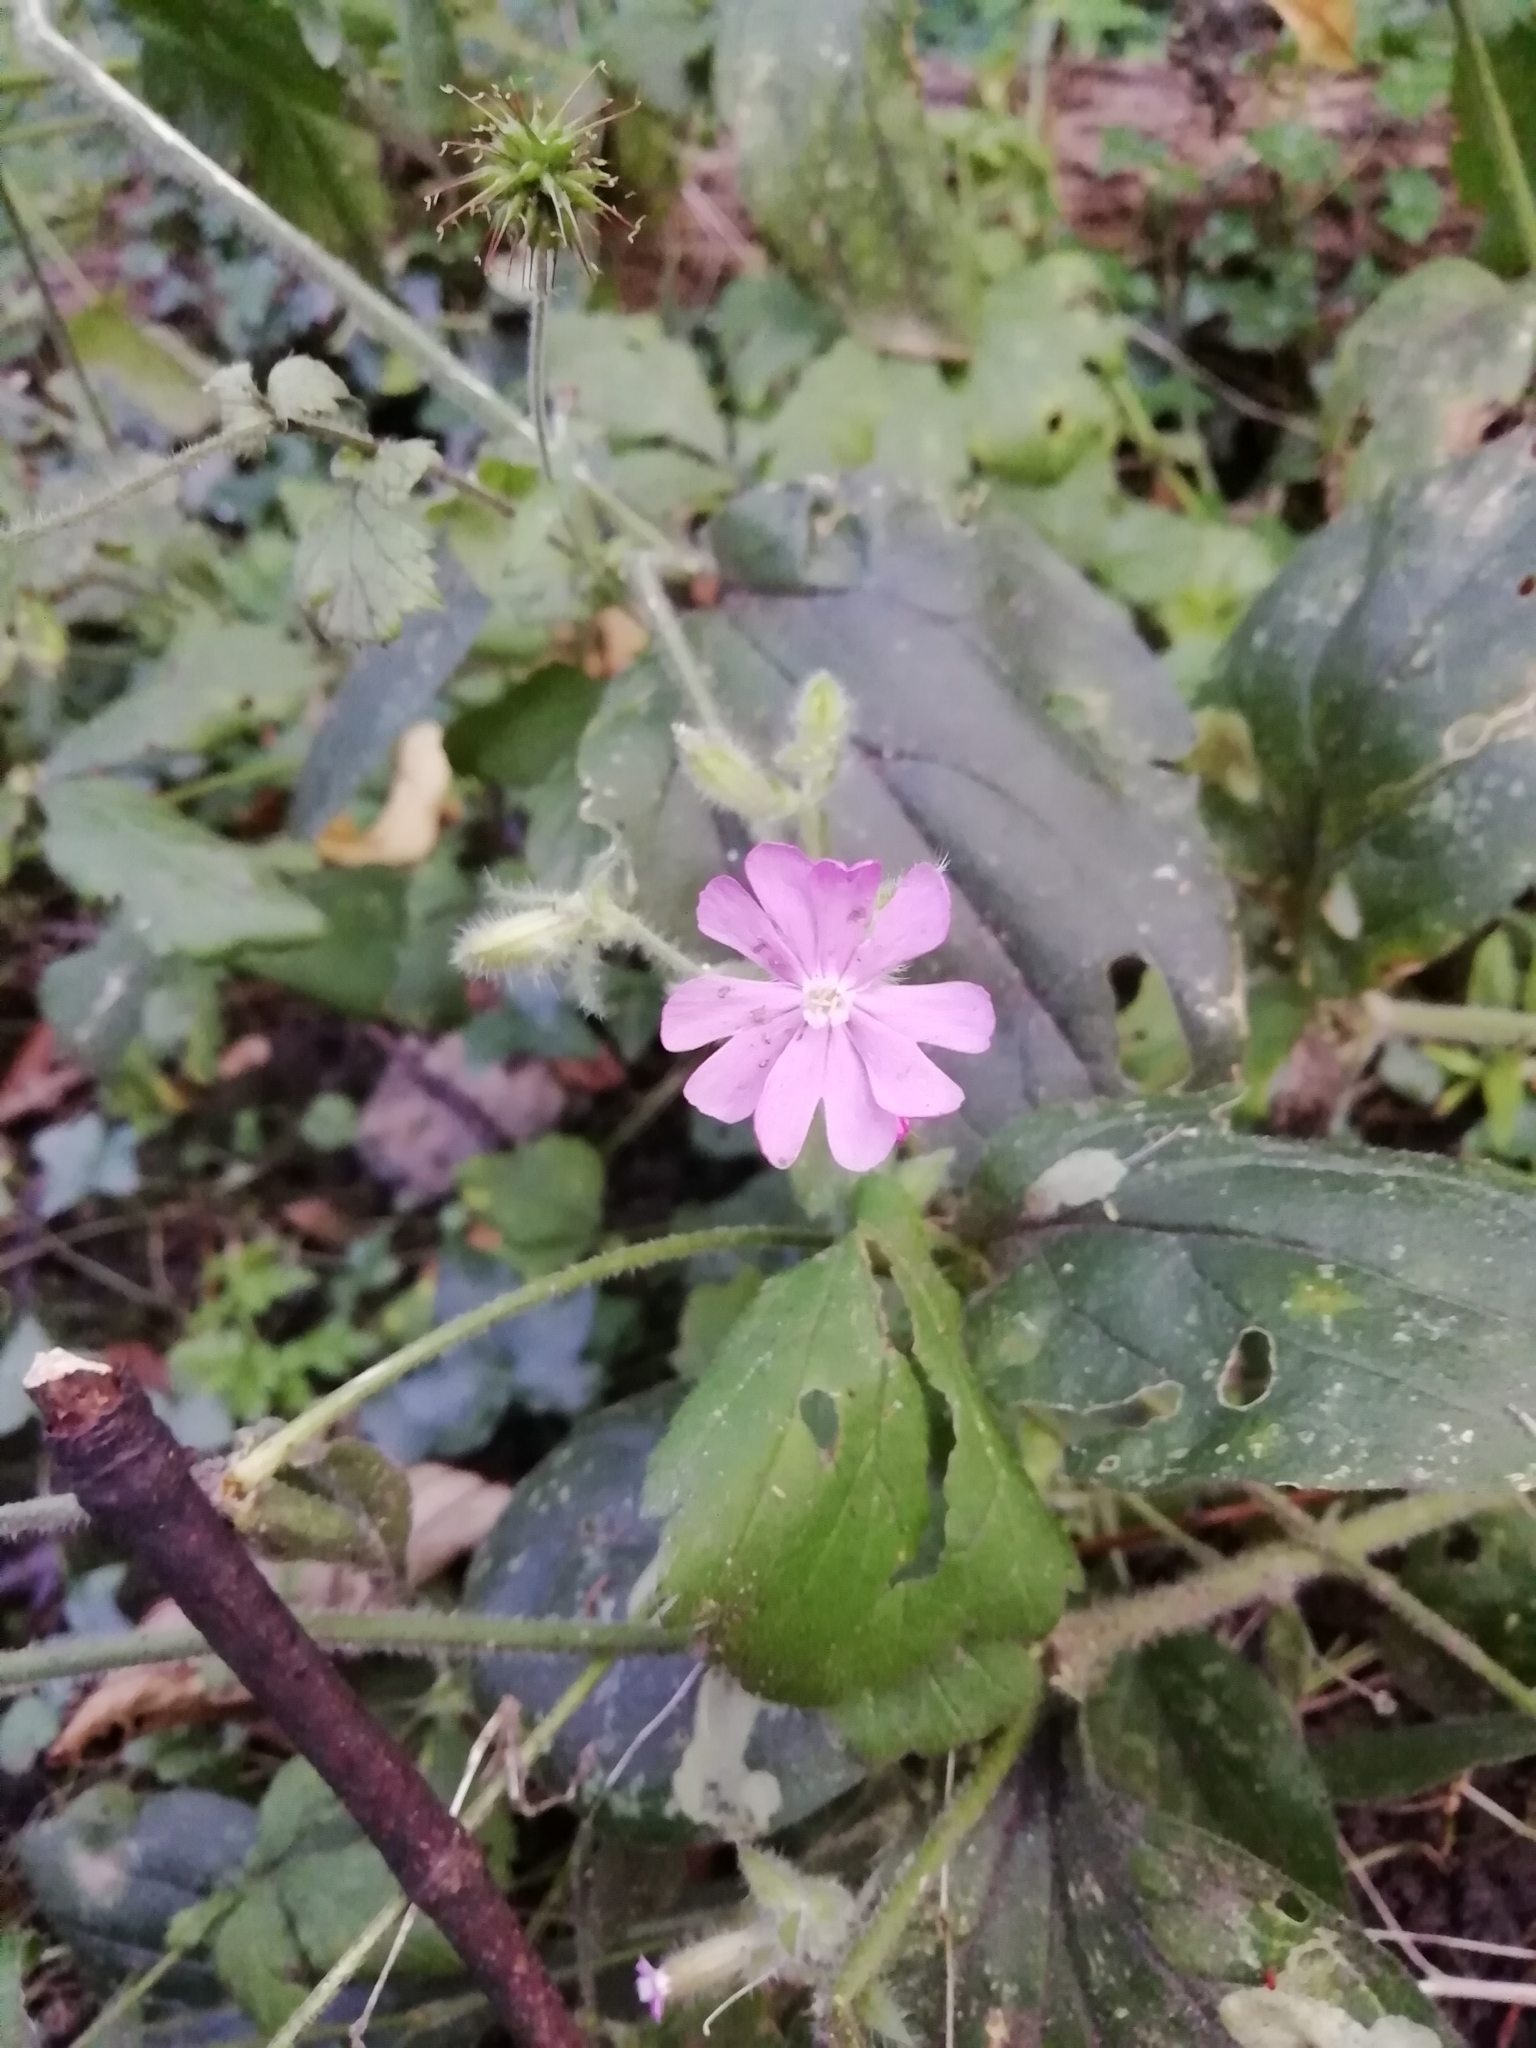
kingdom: Plantae
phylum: Tracheophyta
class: Magnoliopsida
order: Caryophyllales
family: Caryophyllaceae
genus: Silene
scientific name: Silene dioica
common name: Red campion
